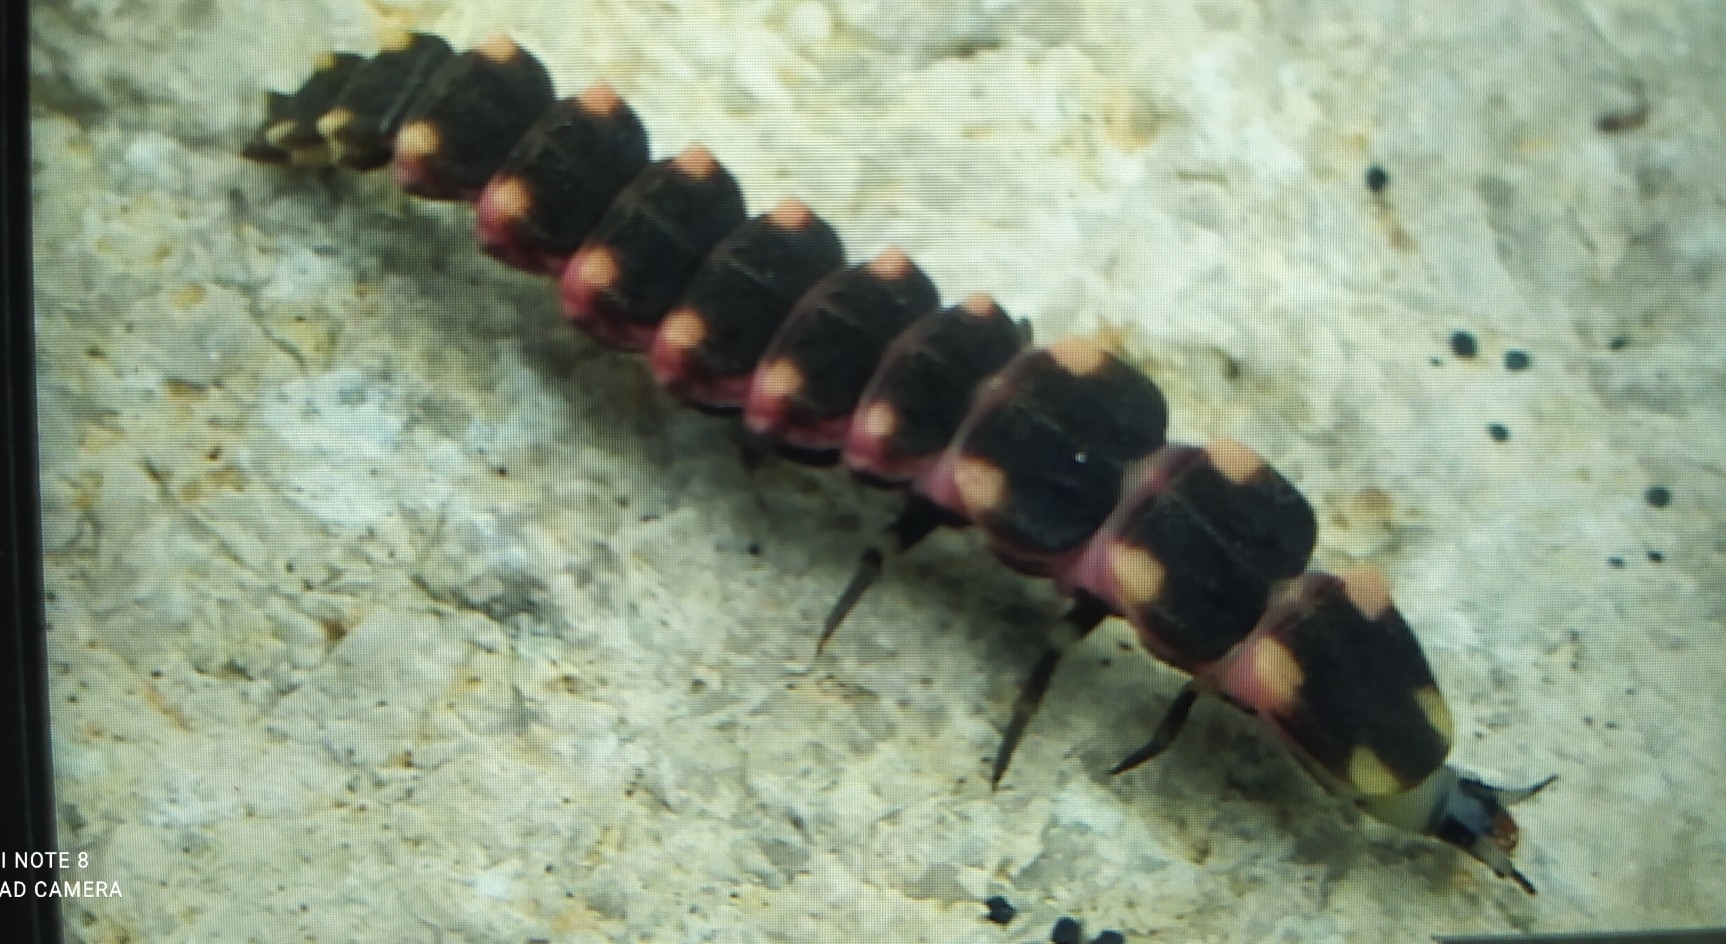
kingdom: Animalia
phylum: Arthropoda
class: Insecta
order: Coleoptera
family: Lampyridae
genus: Nyctophila
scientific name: Nyctophila heydeni
